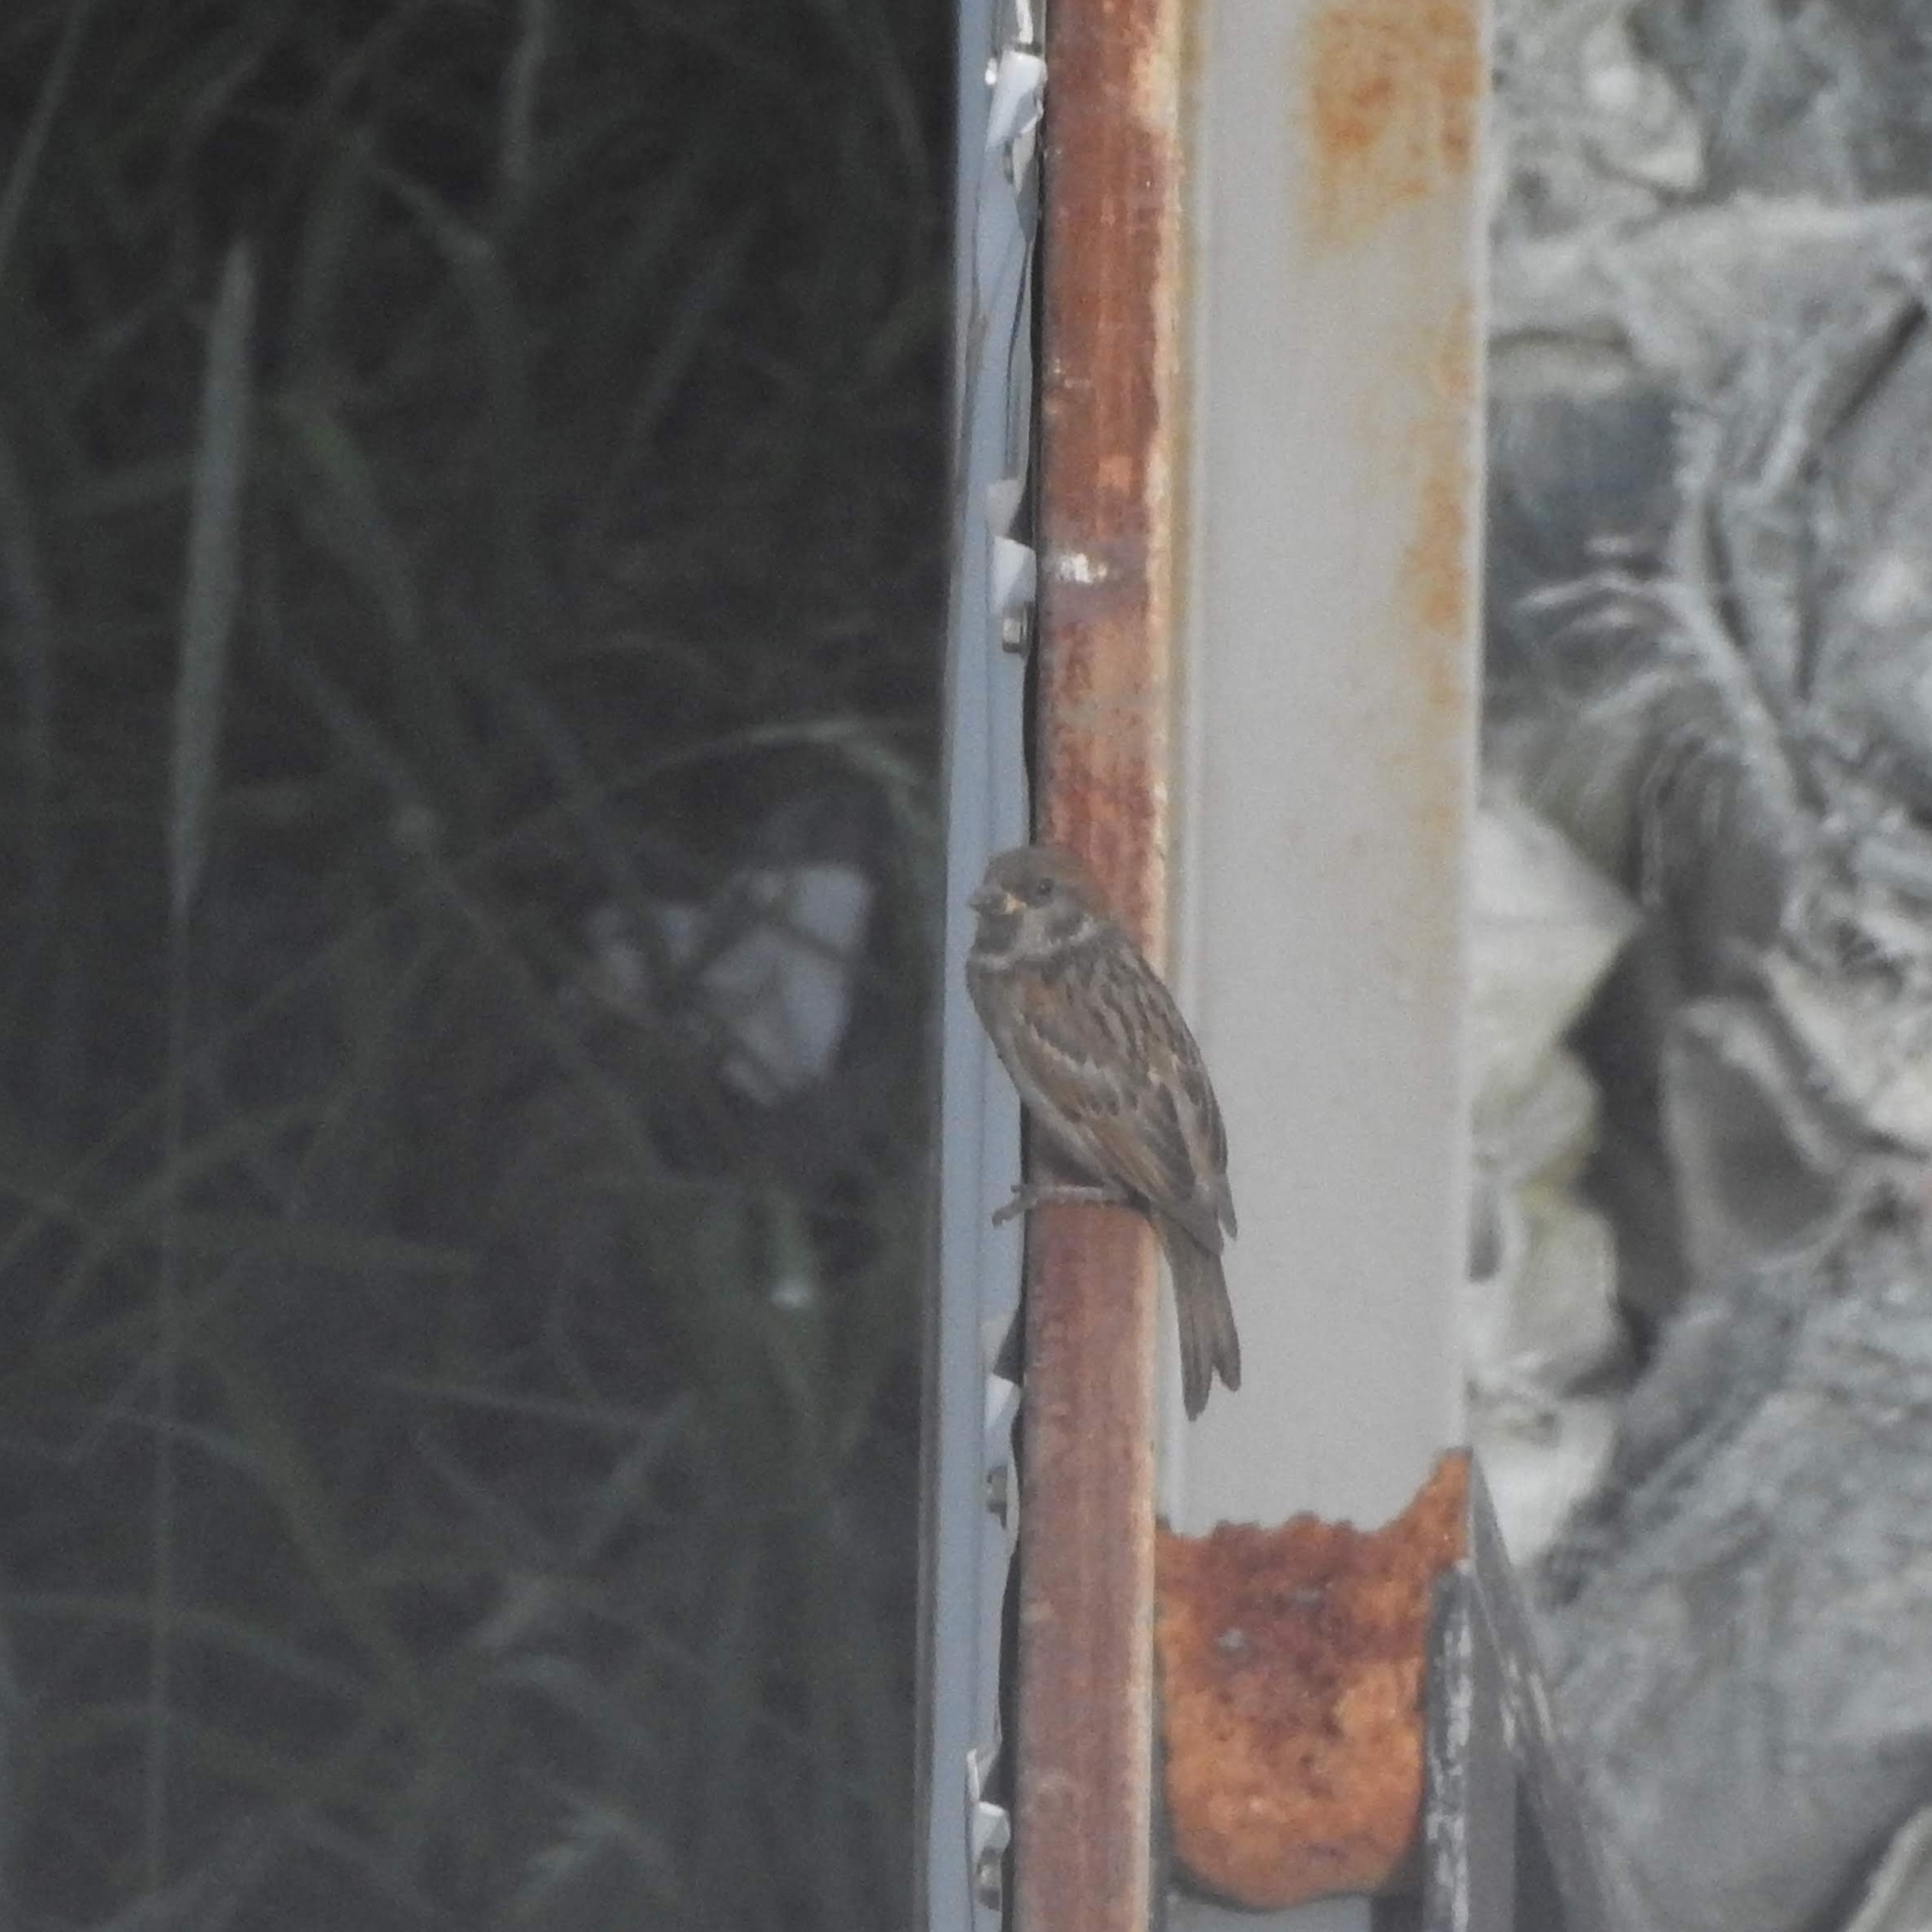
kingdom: Animalia
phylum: Chordata
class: Aves
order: Passeriformes
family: Passeridae
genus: Passer
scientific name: Passer montanus
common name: Eurasian tree sparrow
